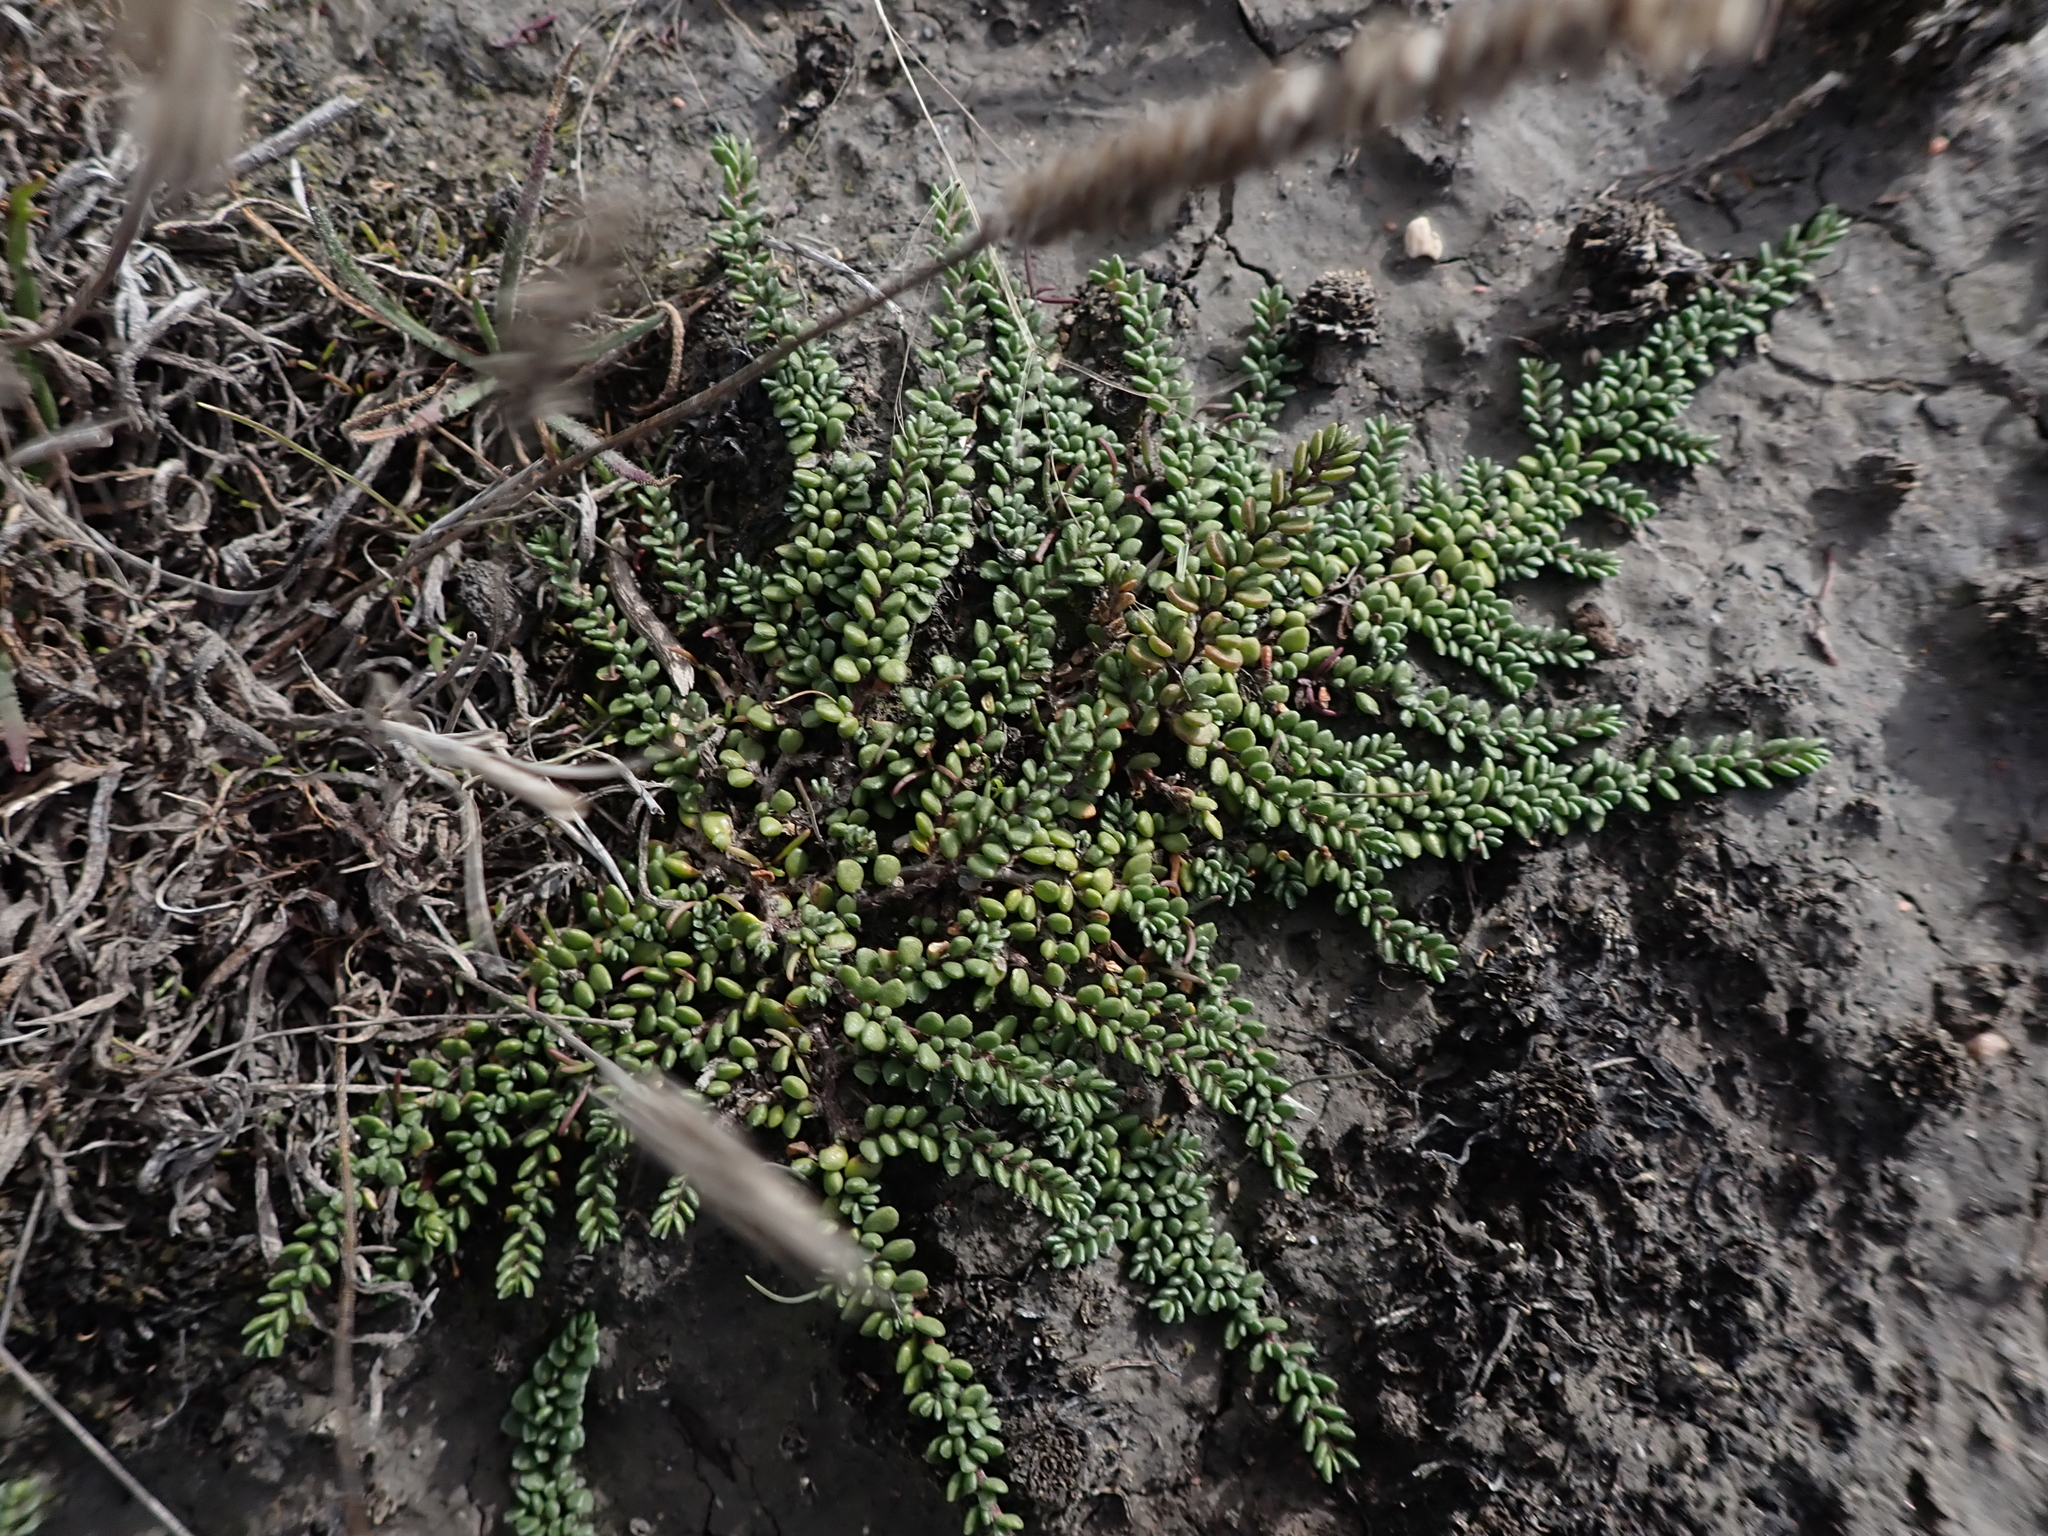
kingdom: Plantae
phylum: Tracheophyta
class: Magnoliopsida
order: Solanales
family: Convolvulaceae
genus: Wilsonia
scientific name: Wilsonia rotundifolia
